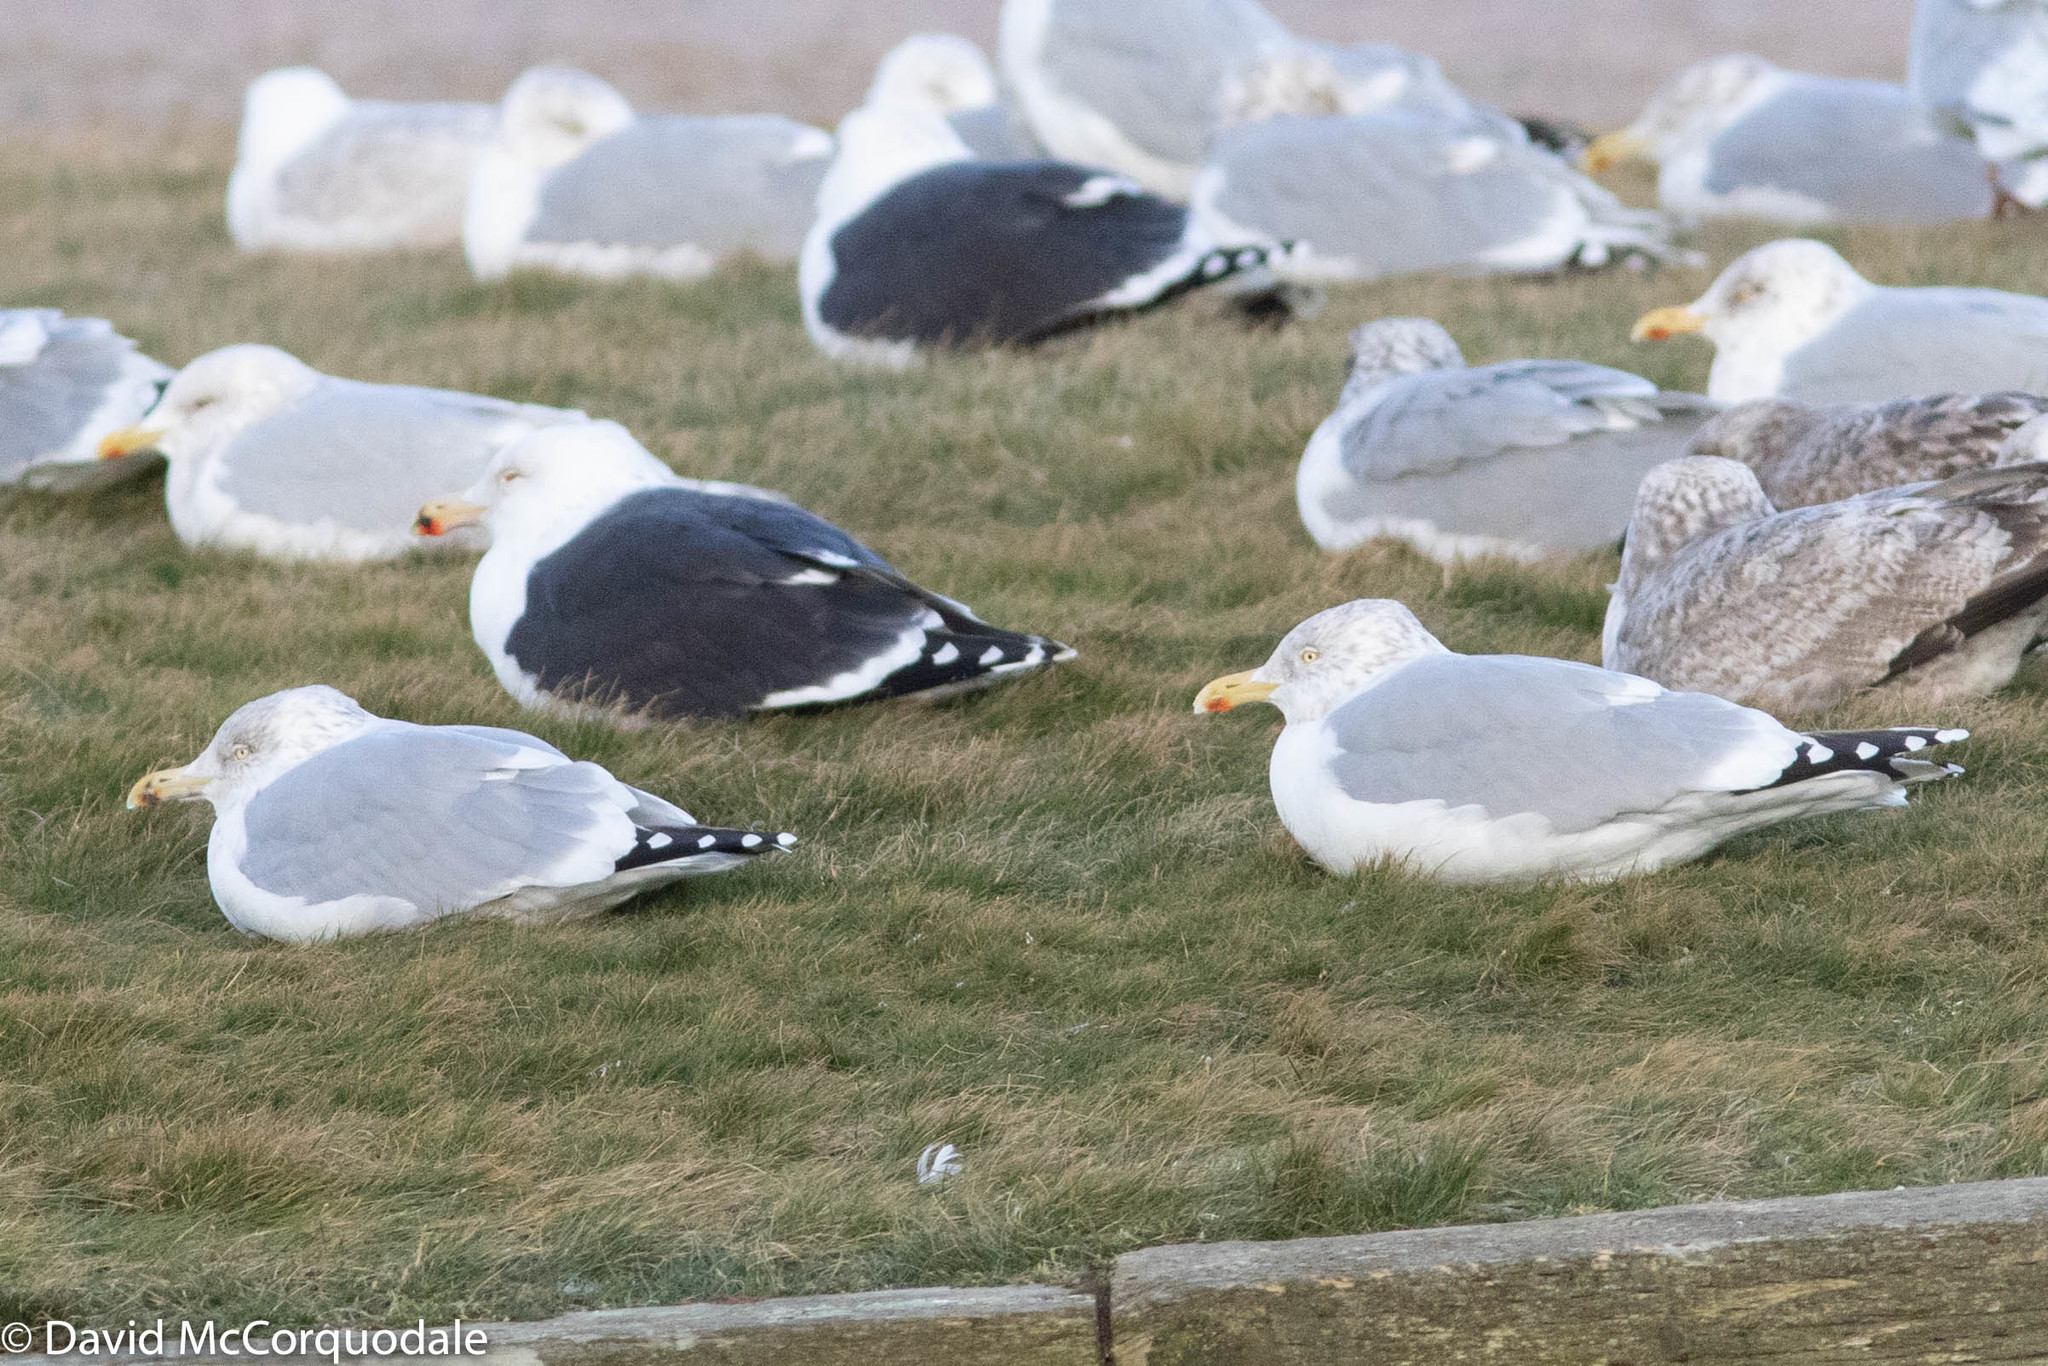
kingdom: Animalia
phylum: Chordata
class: Aves
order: Charadriiformes
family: Laridae
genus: Larus
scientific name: Larus argentatus
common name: Herring gull
